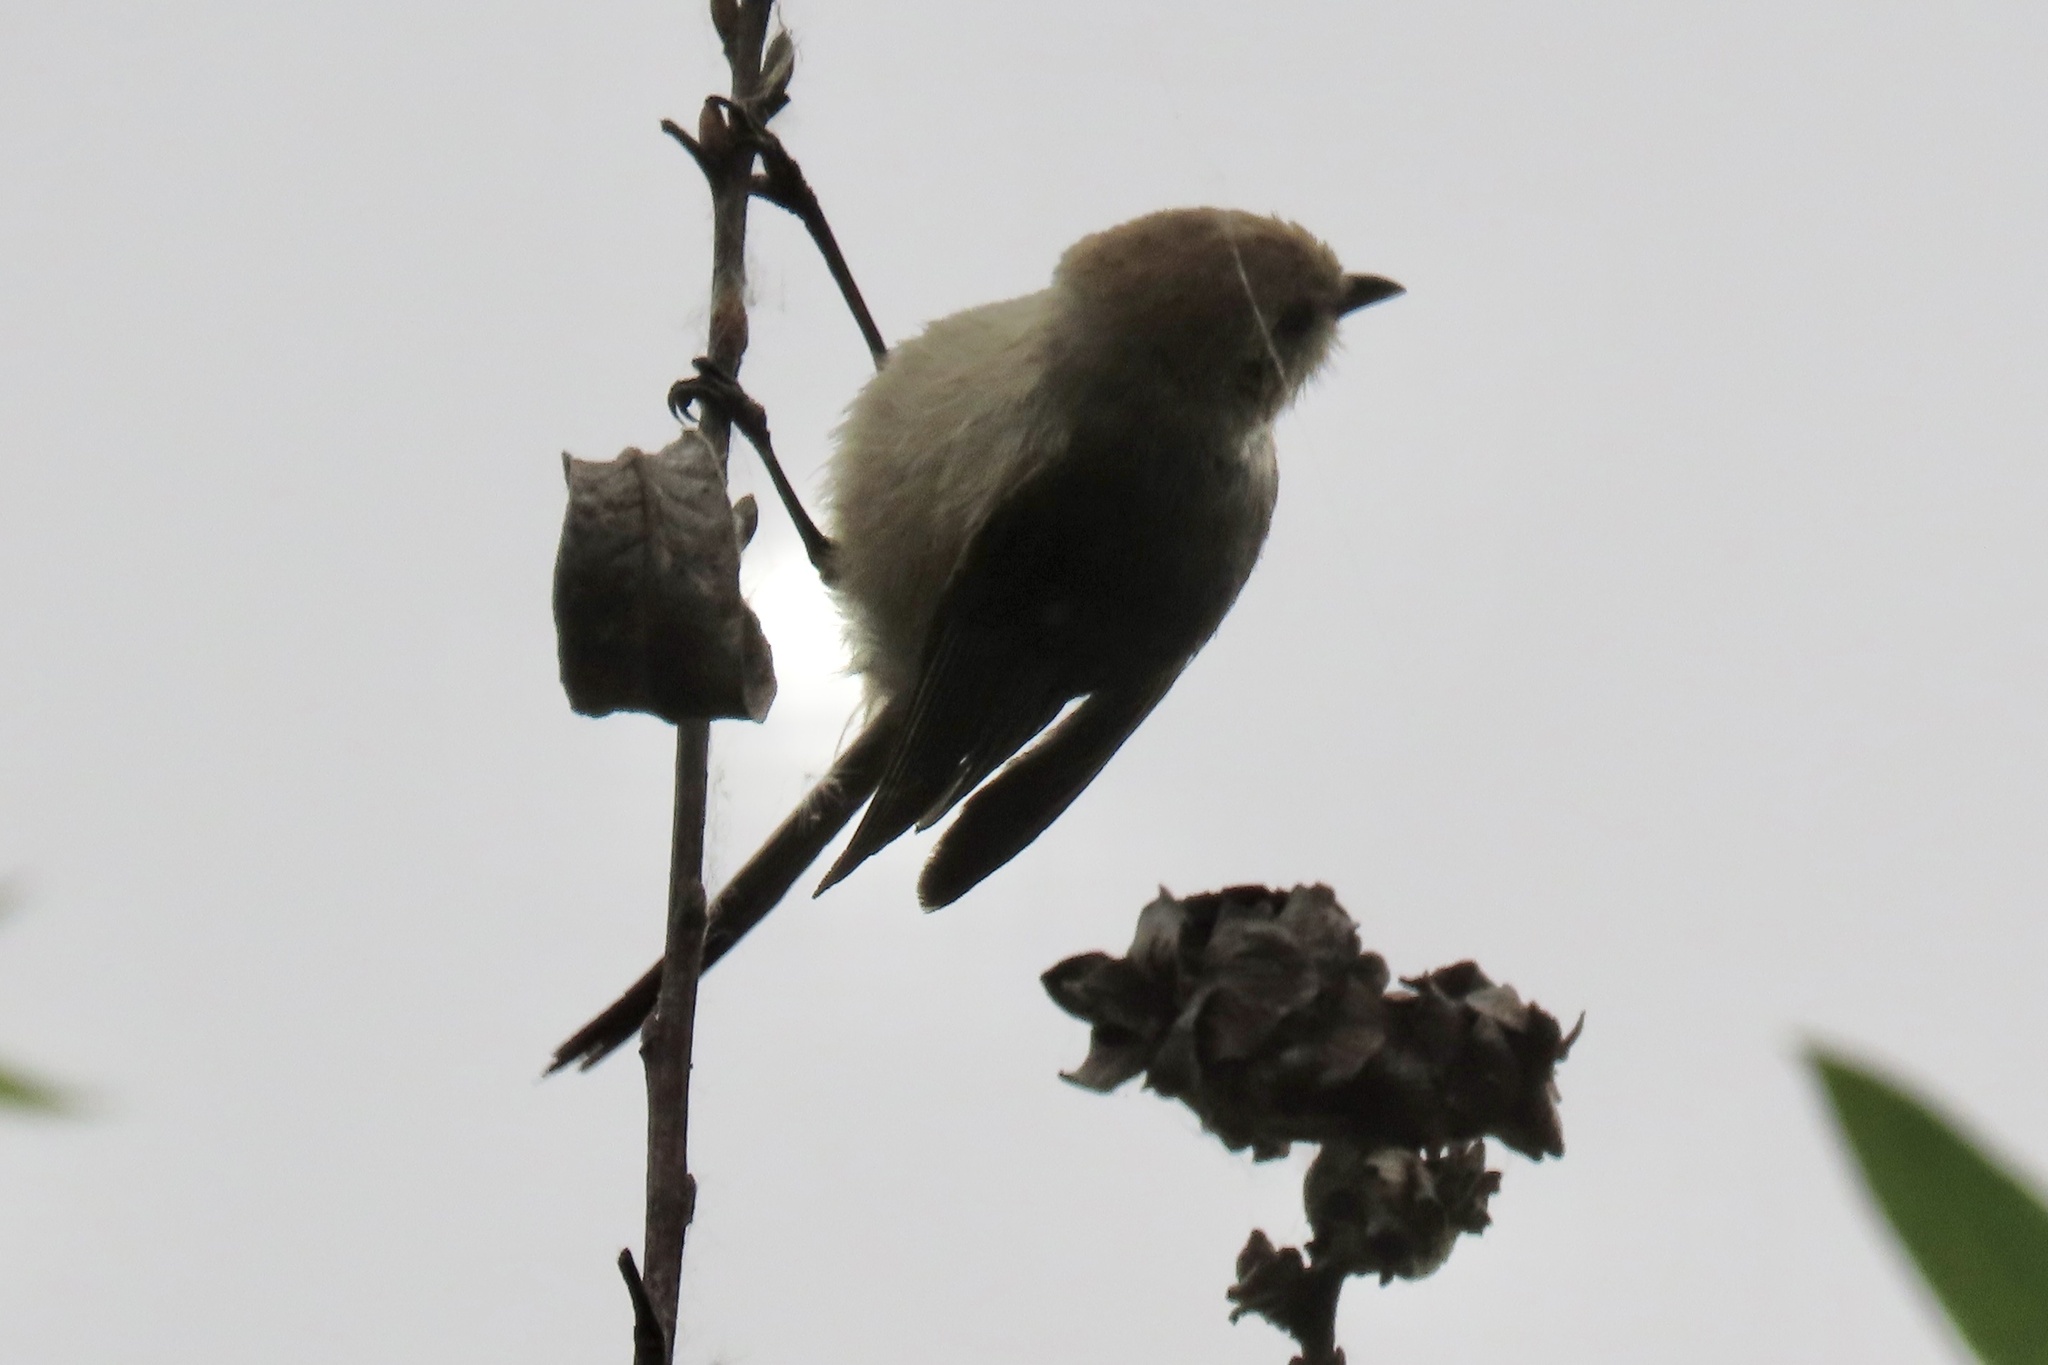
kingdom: Animalia
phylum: Chordata
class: Aves
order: Passeriformes
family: Aegithalidae
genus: Psaltriparus
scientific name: Psaltriparus minimus
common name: American bushtit
